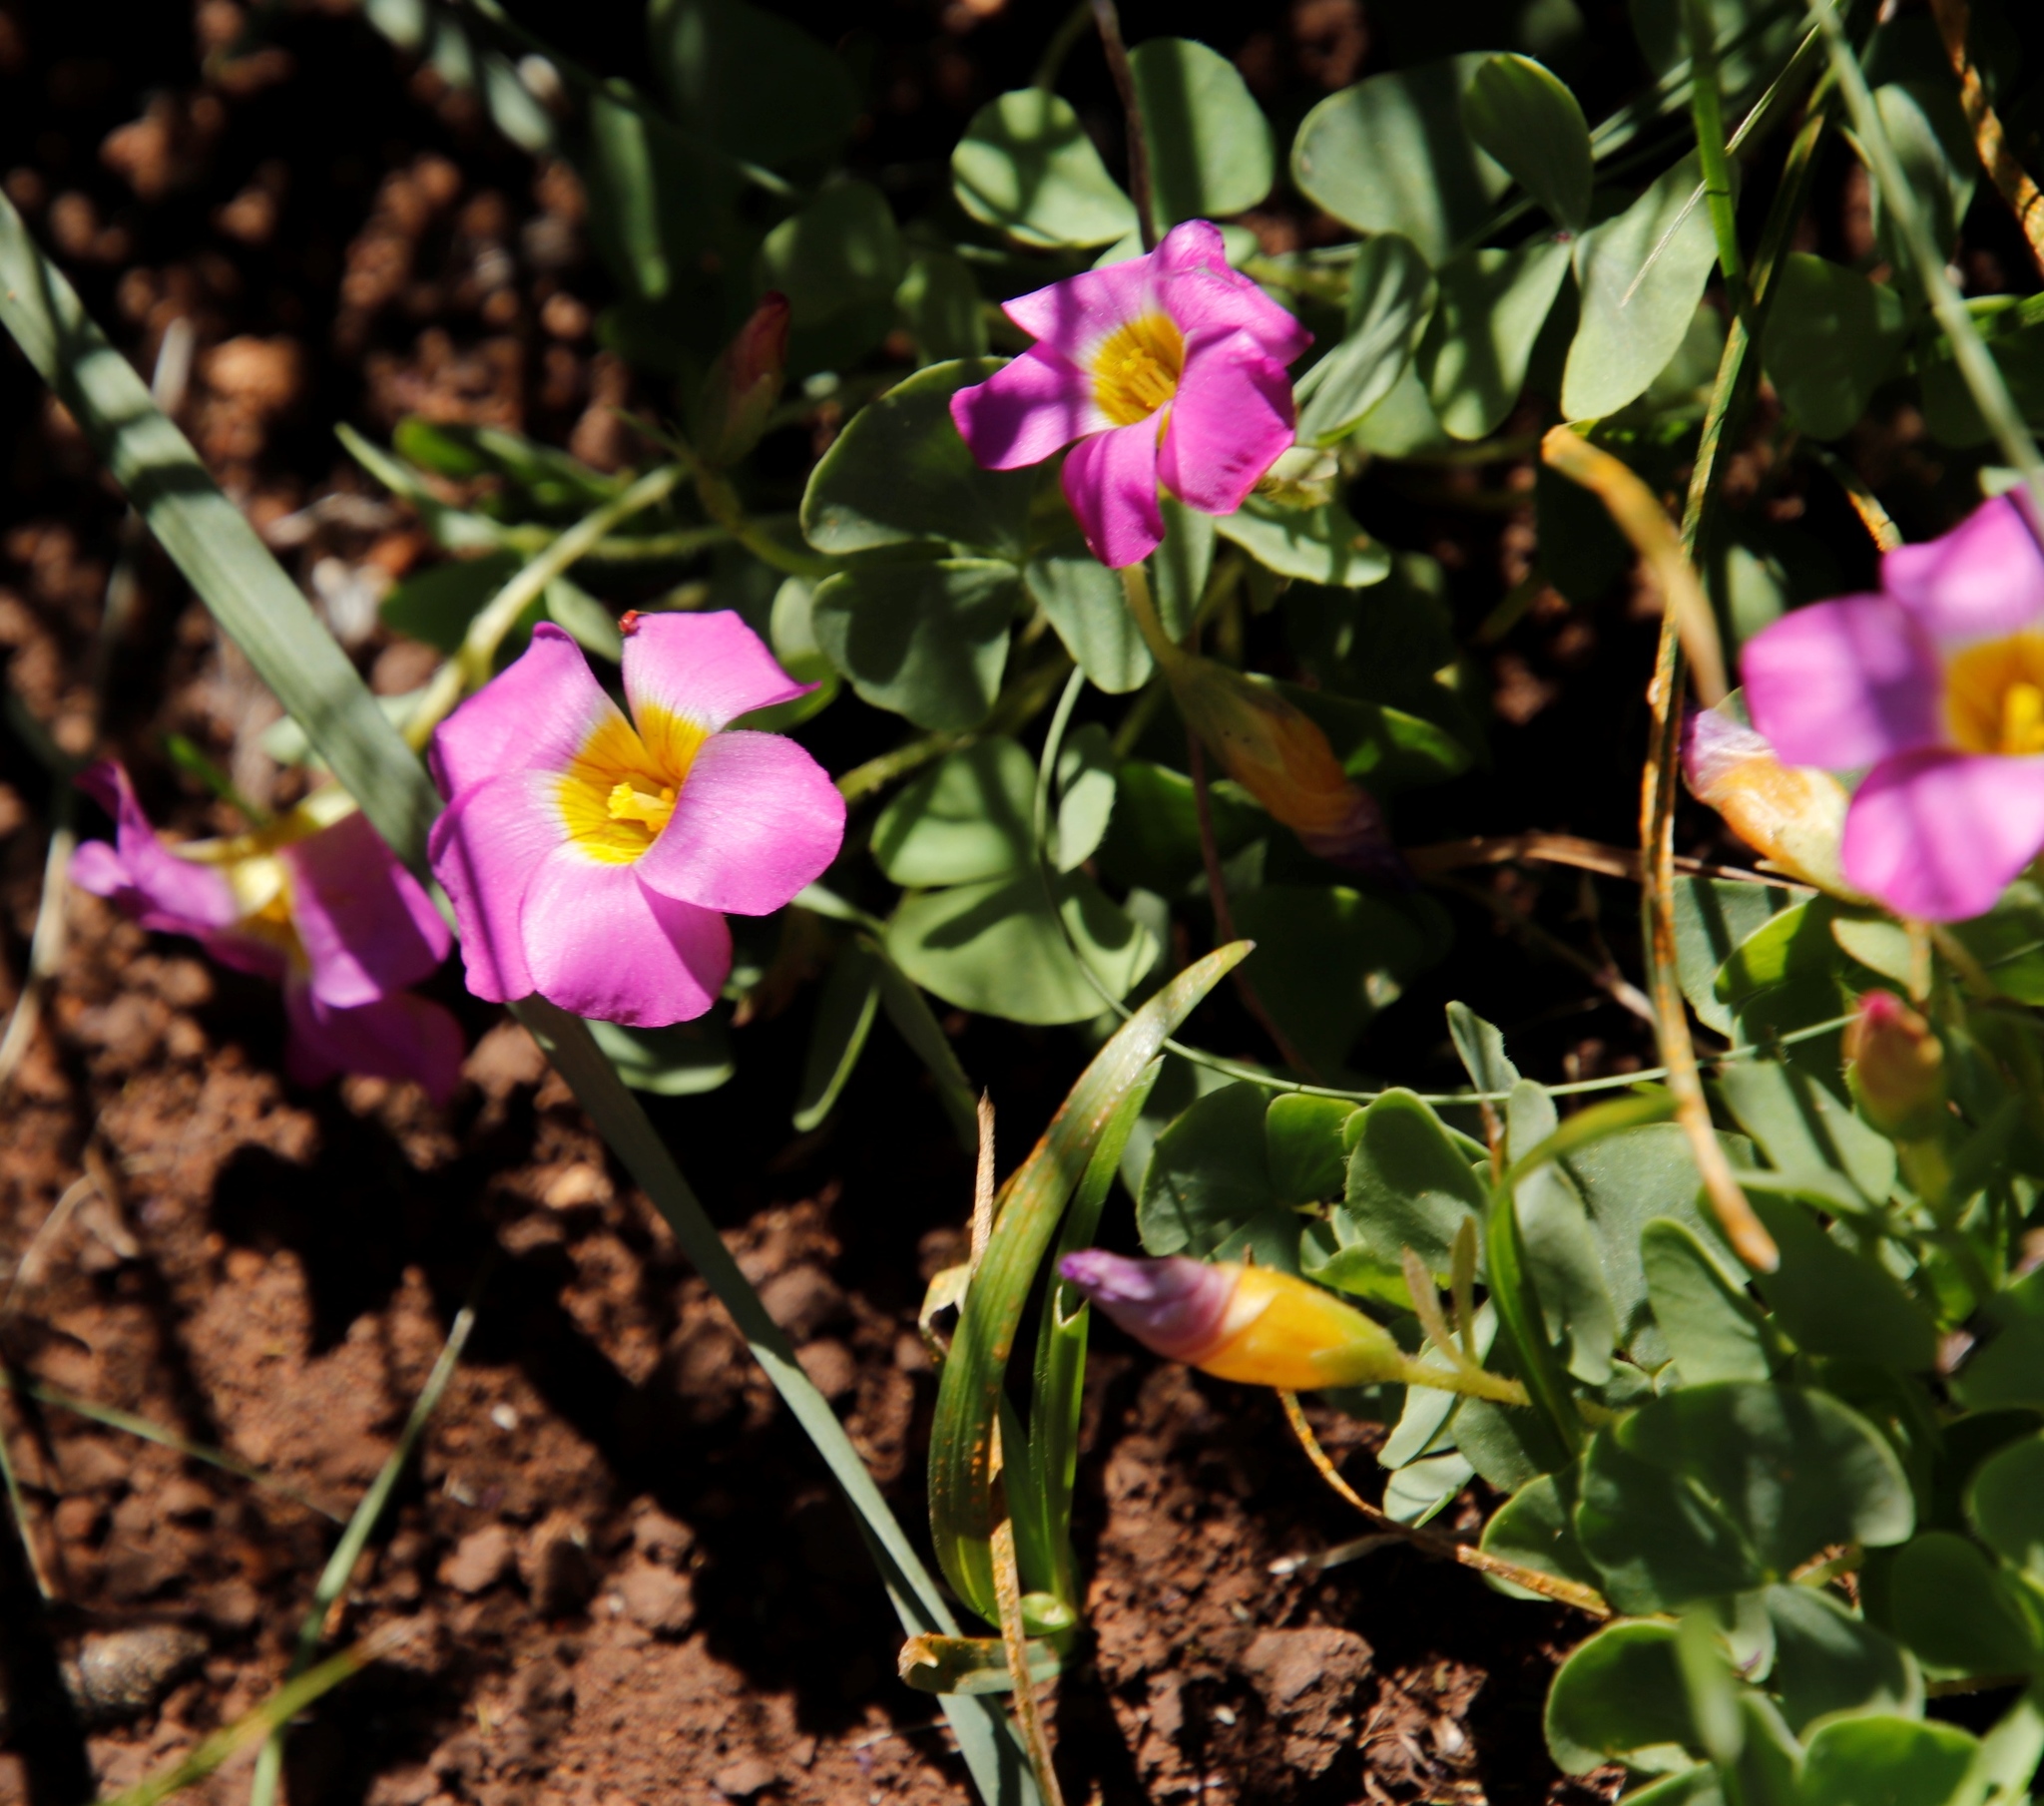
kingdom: Plantae
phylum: Tracheophyta
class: Magnoliopsida
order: Oxalidales
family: Oxalidaceae
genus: Oxalis
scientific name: Oxalis obliquifolia
